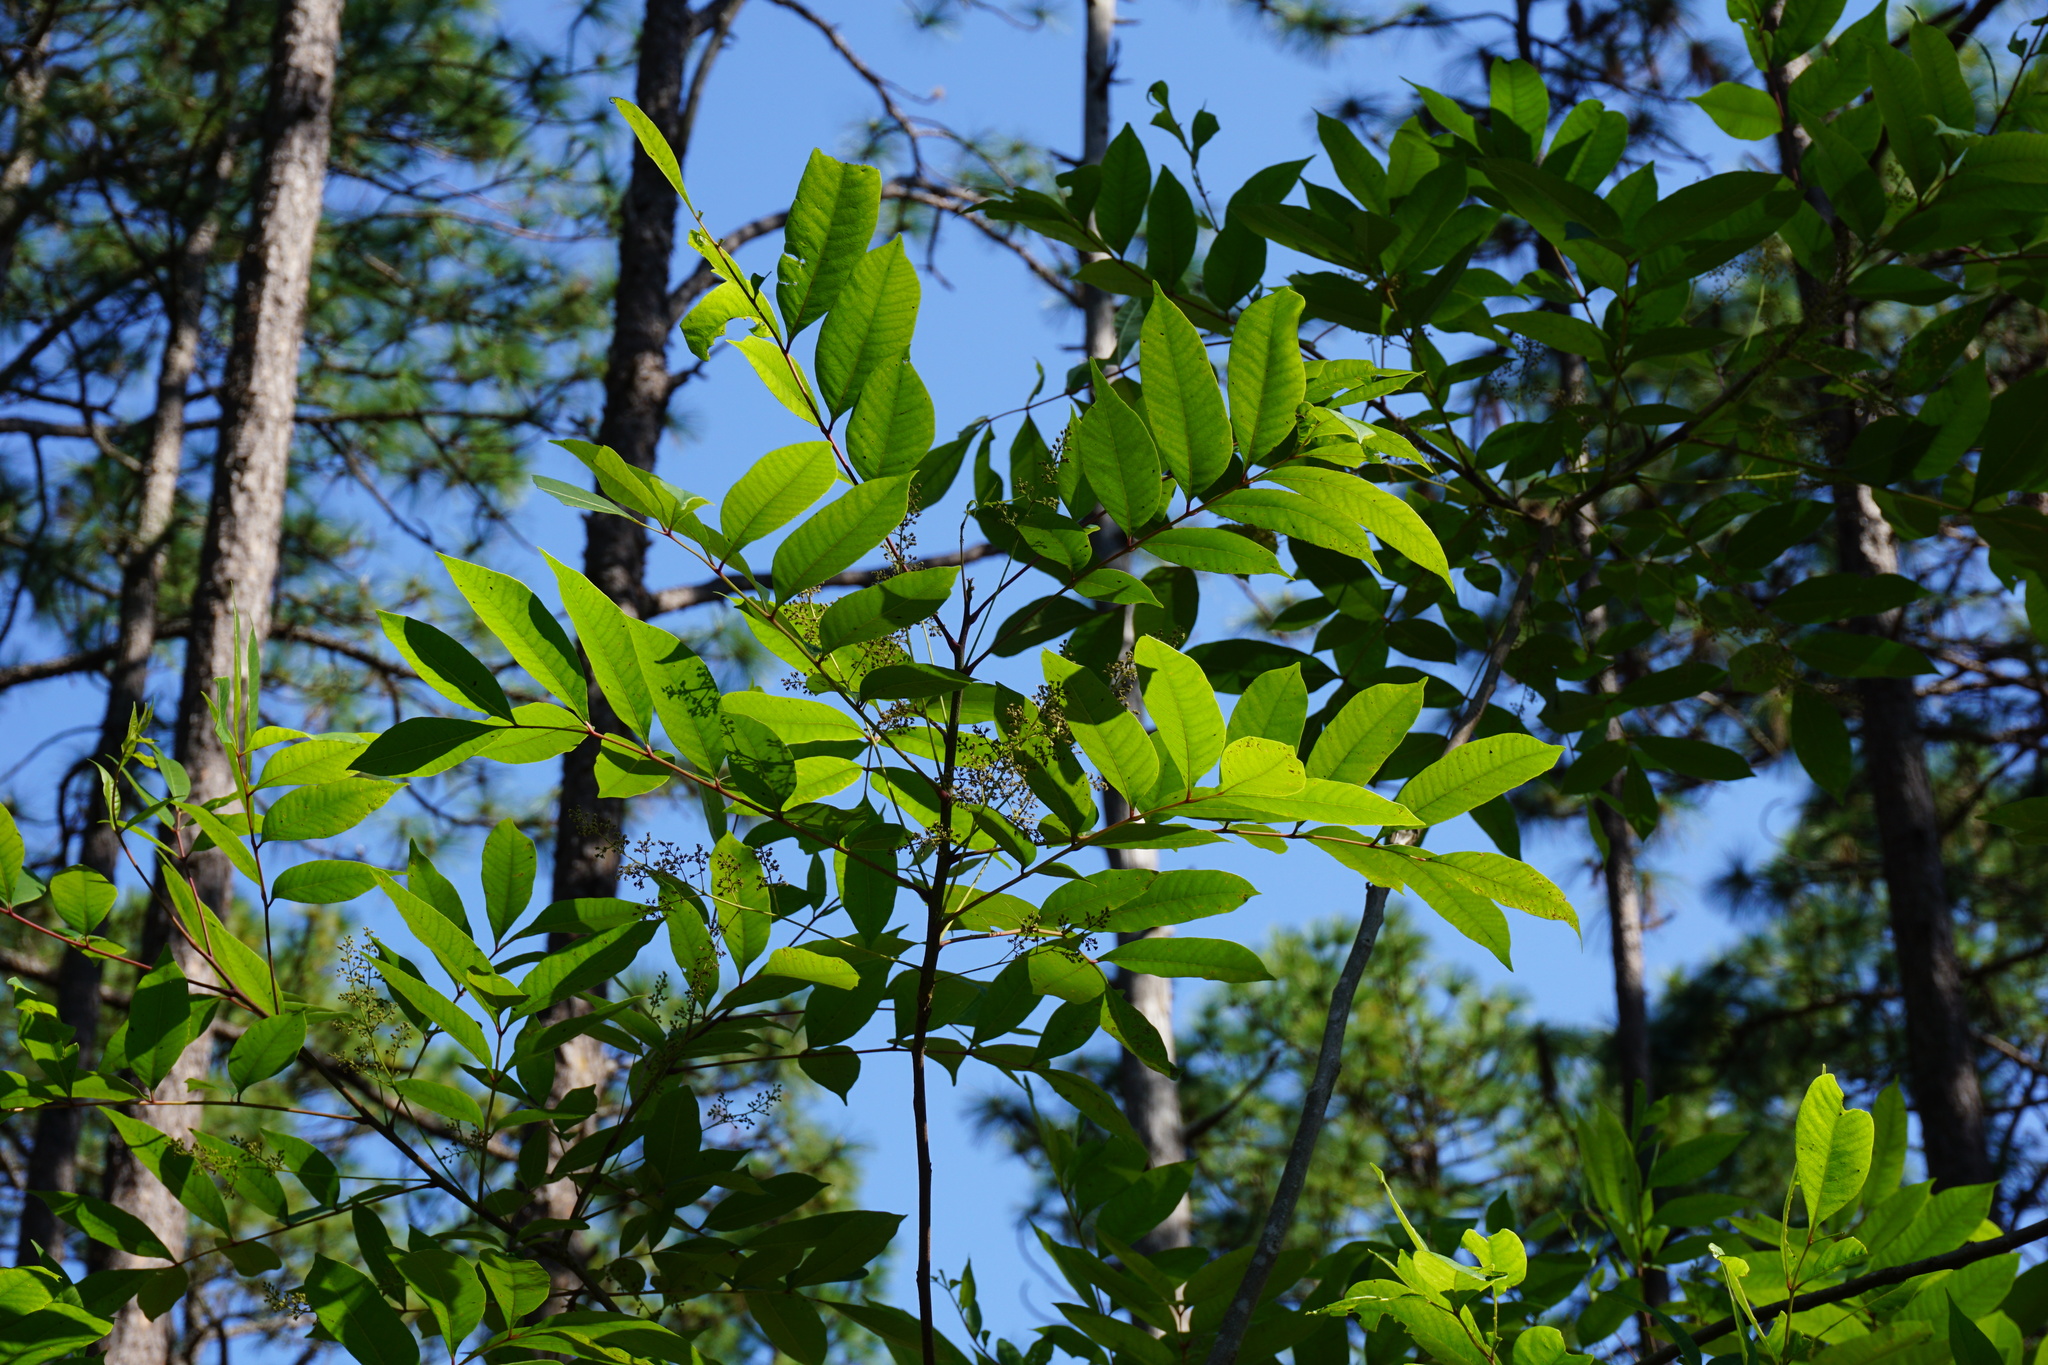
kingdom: Plantae
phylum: Tracheophyta
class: Magnoliopsida
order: Sapindales
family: Anacardiaceae
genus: Toxicodendron
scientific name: Toxicodendron vernix
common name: Poison sumac
